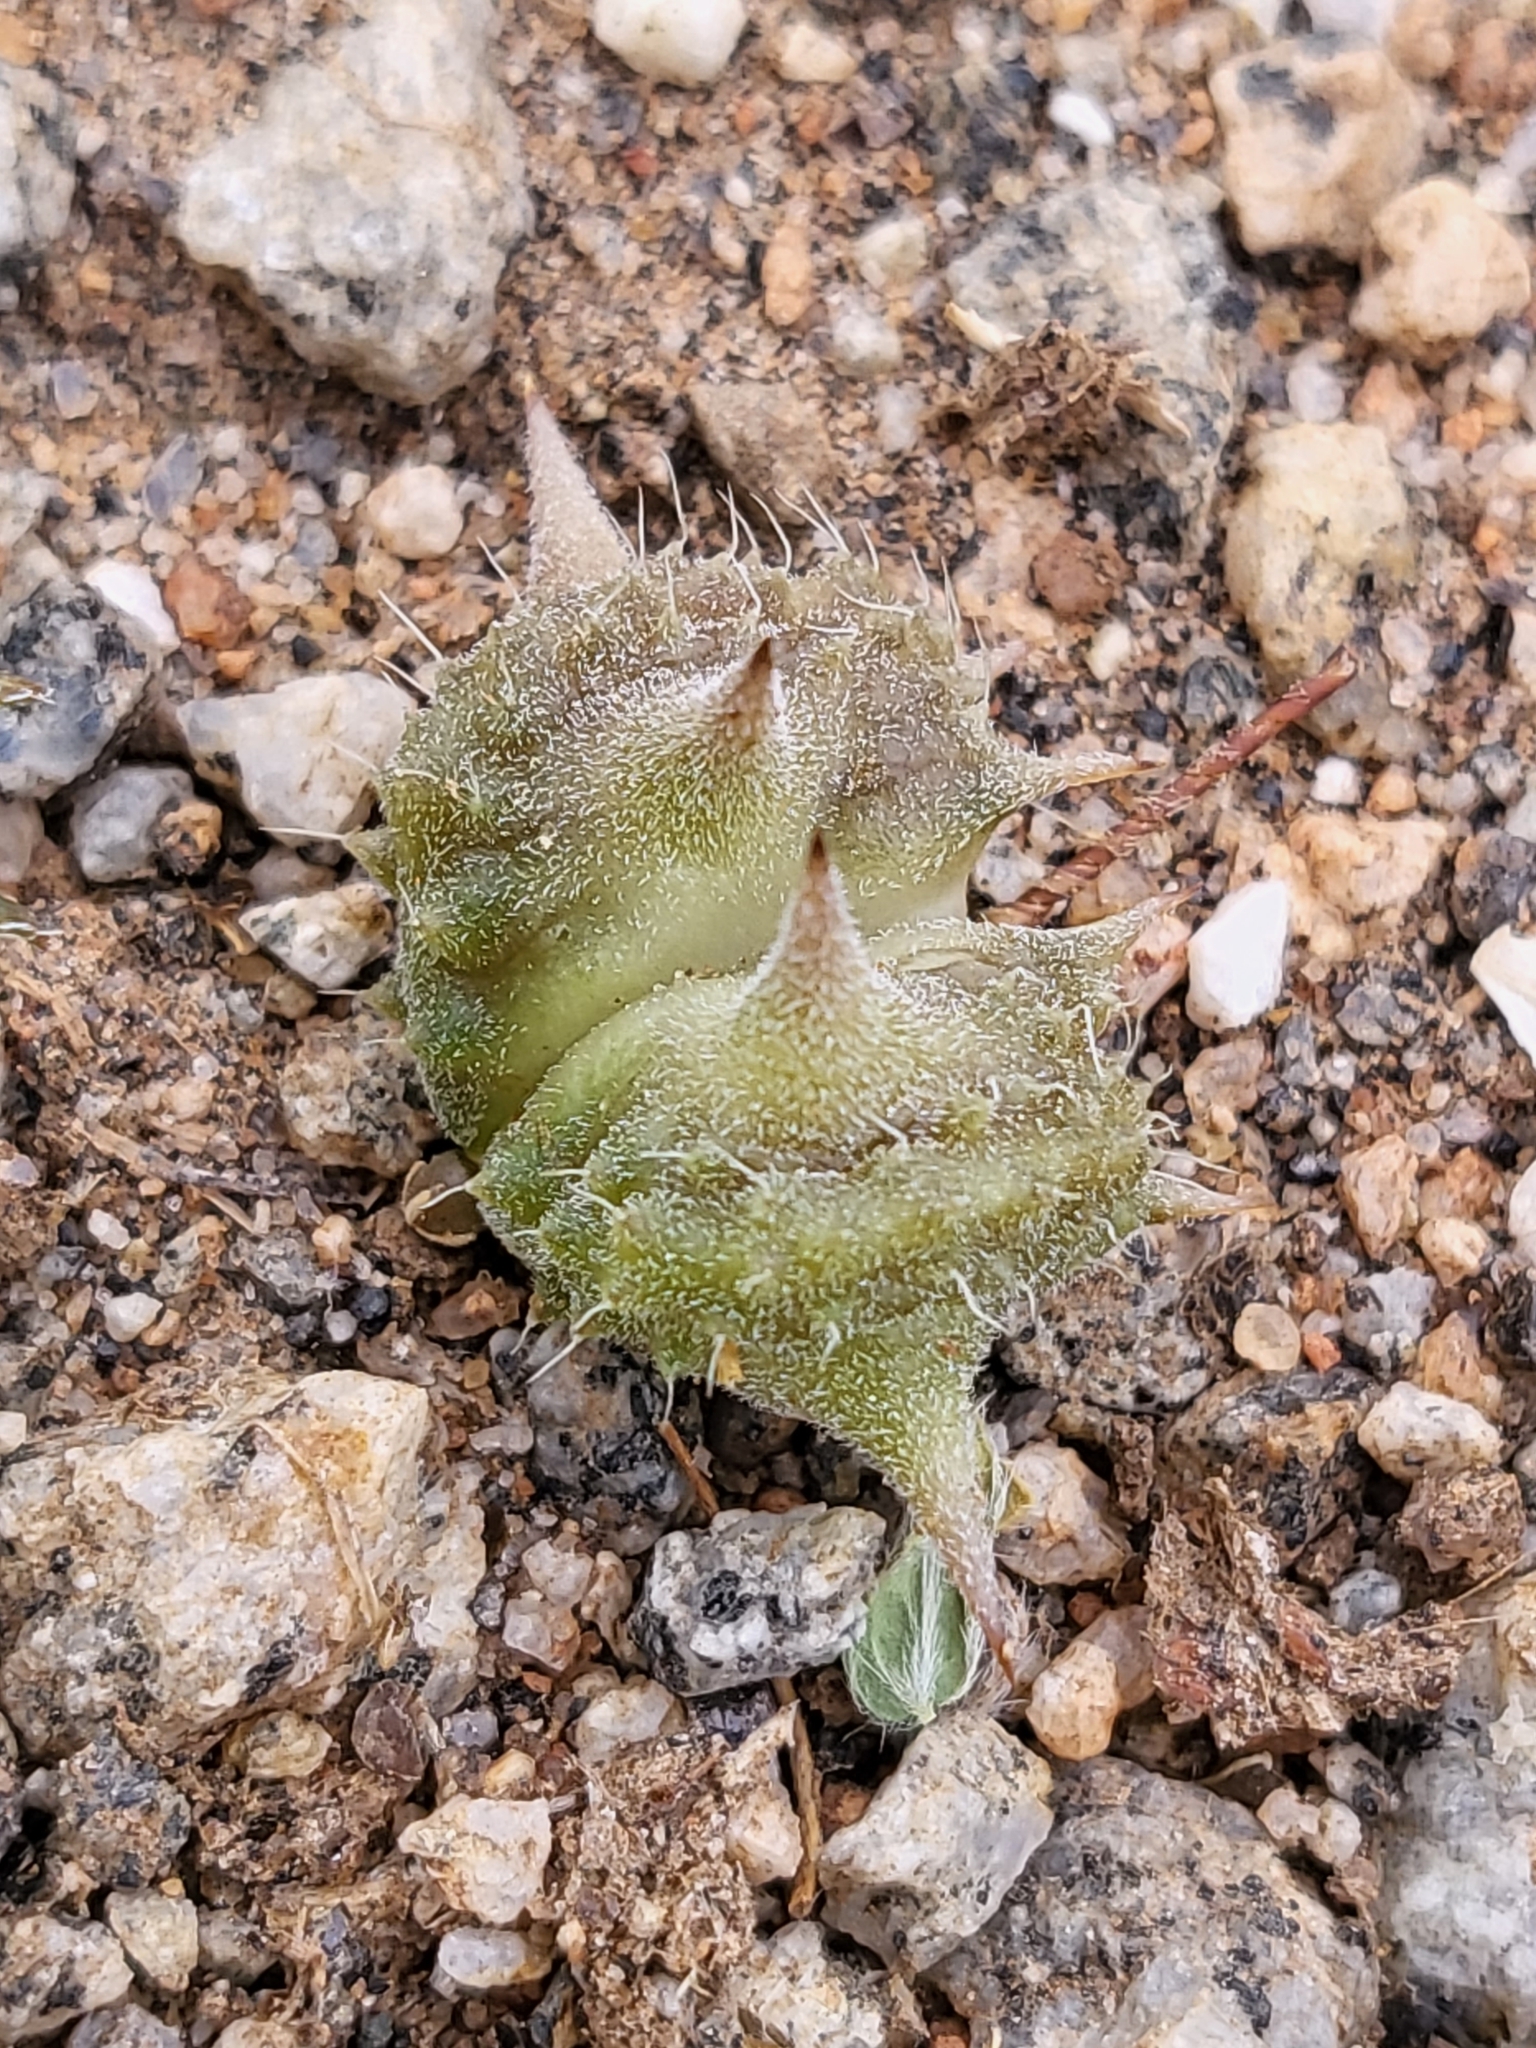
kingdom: Plantae
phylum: Tracheophyta
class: Magnoliopsida
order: Zygophyllales
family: Zygophyllaceae
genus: Tribulus
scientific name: Tribulus terrestris
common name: Puncturevine
